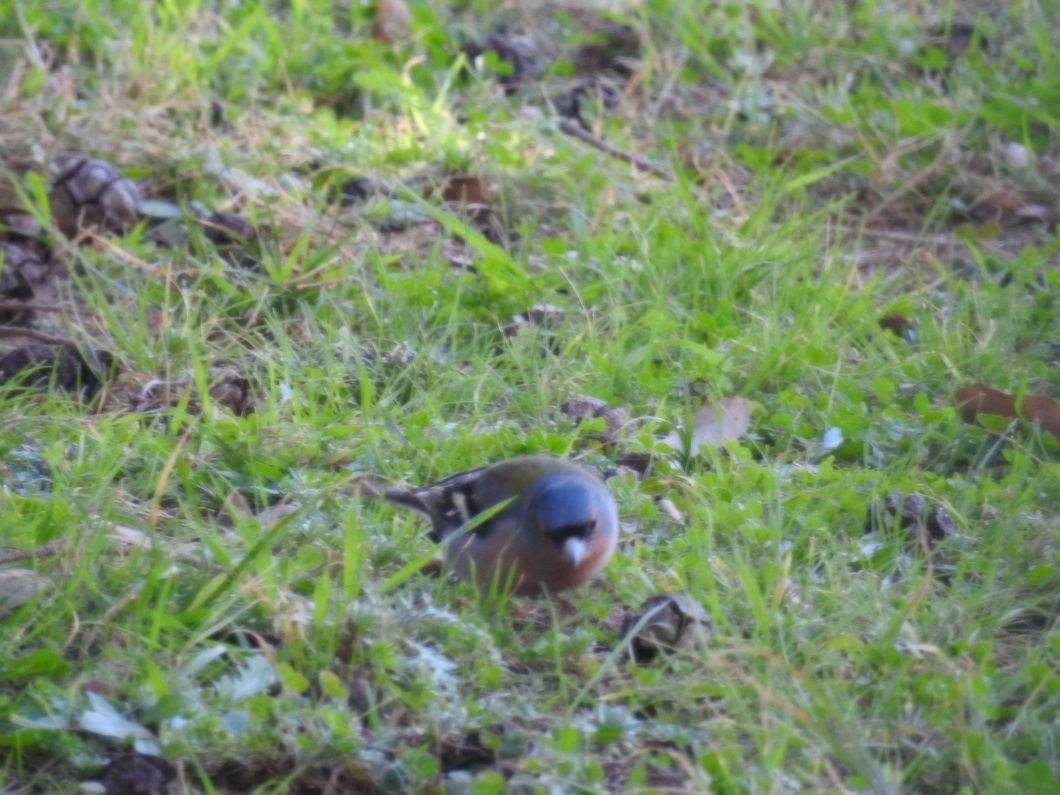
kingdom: Animalia
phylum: Chordata
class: Aves
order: Passeriformes
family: Fringillidae
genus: Fringilla
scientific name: Fringilla spodiogenys
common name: African chaffinch
